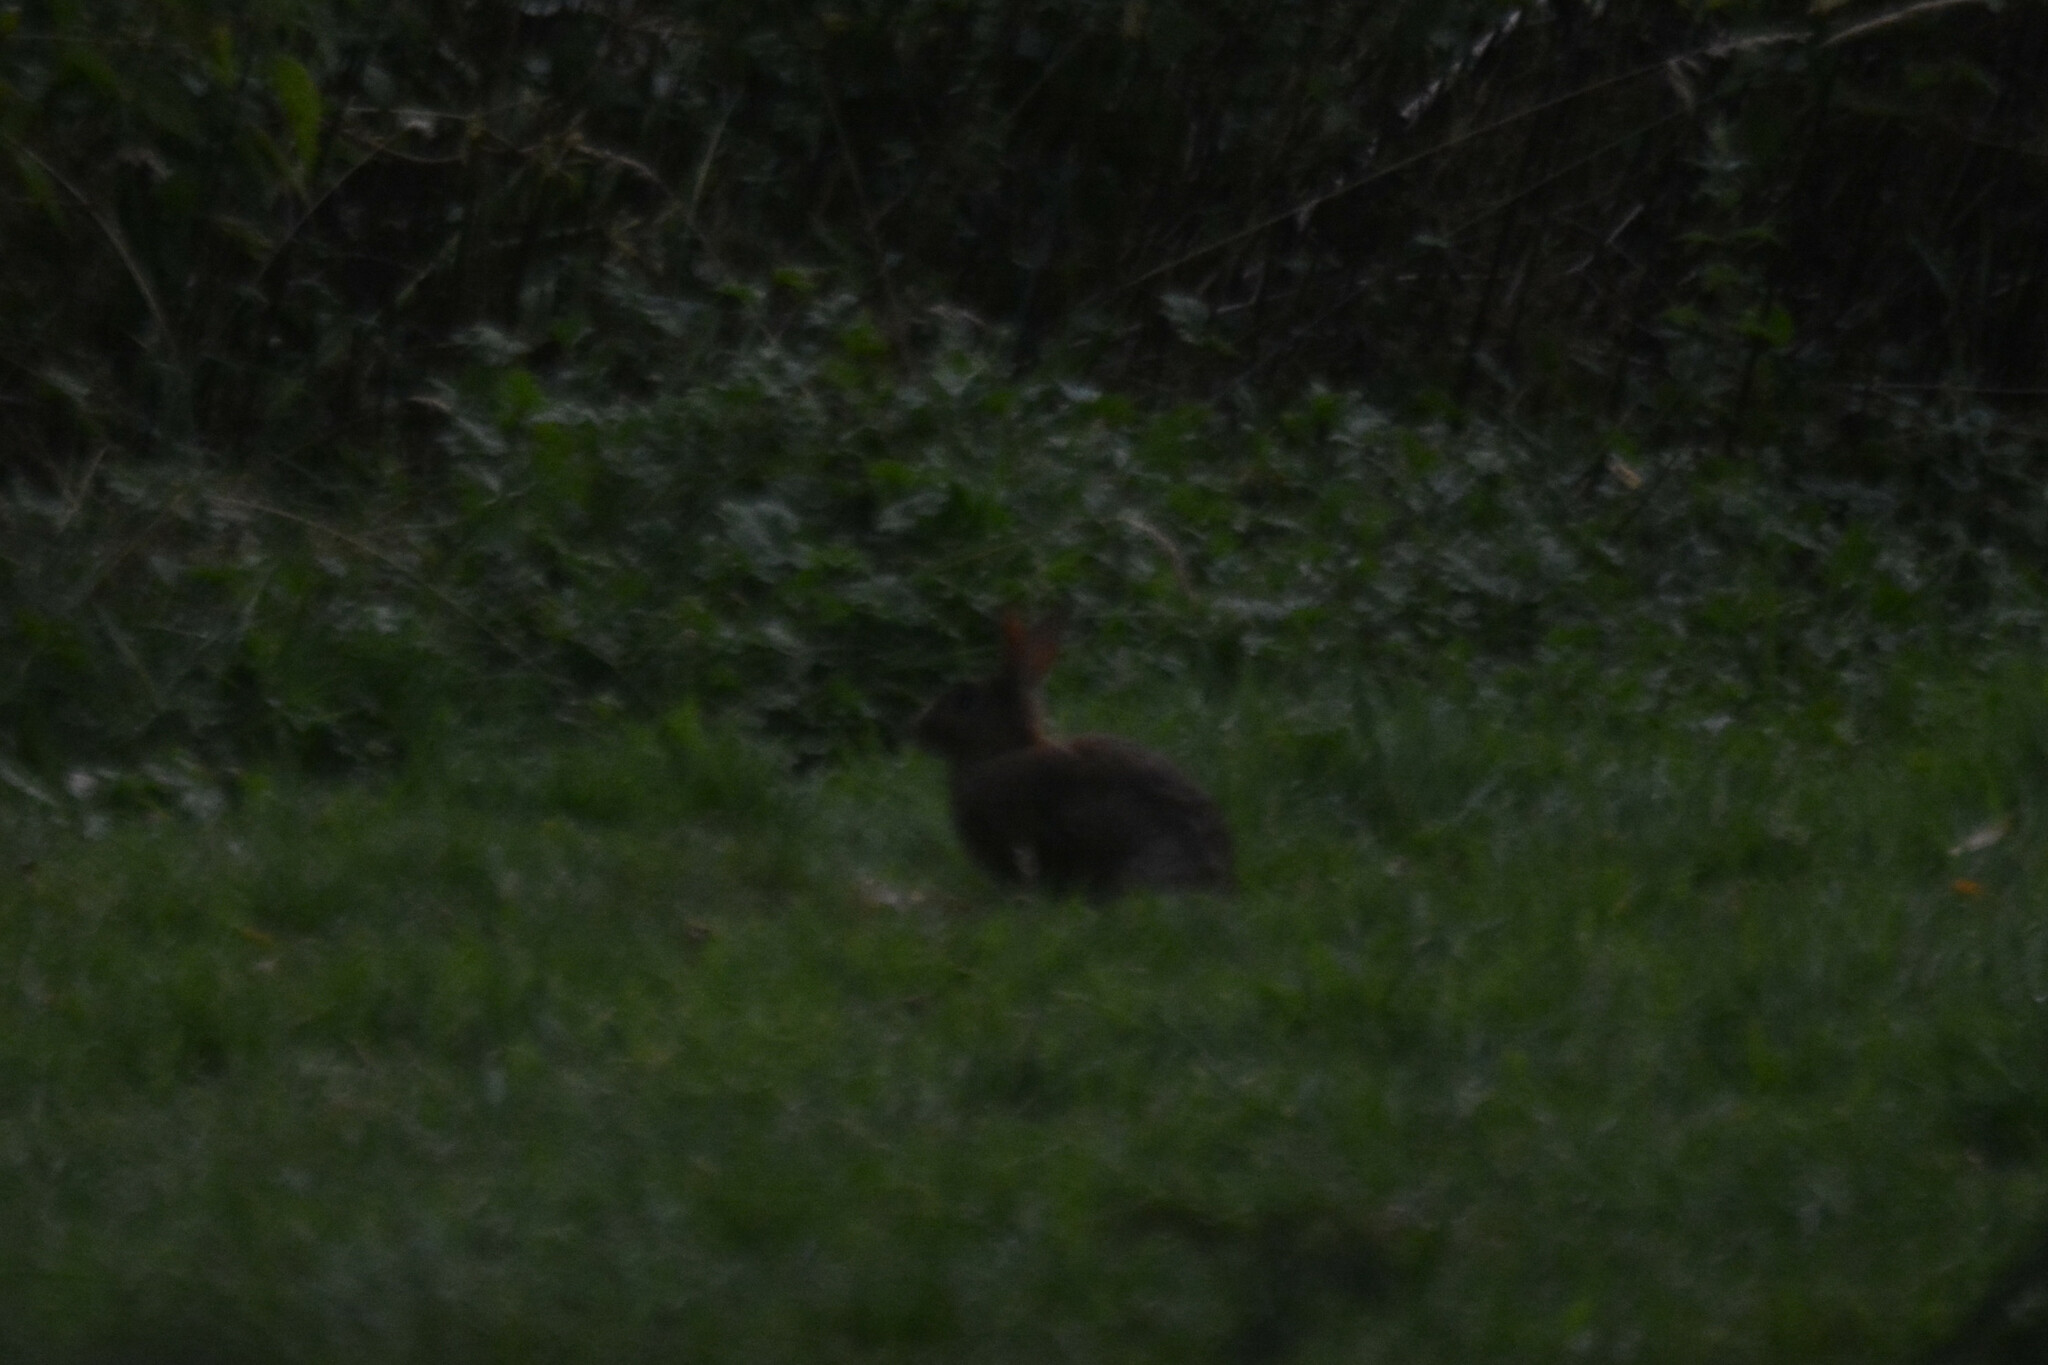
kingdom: Animalia
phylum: Chordata
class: Mammalia
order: Lagomorpha
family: Leporidae
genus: Oryctolagus
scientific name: Oryctolagus cuniculus
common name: European rabbit
